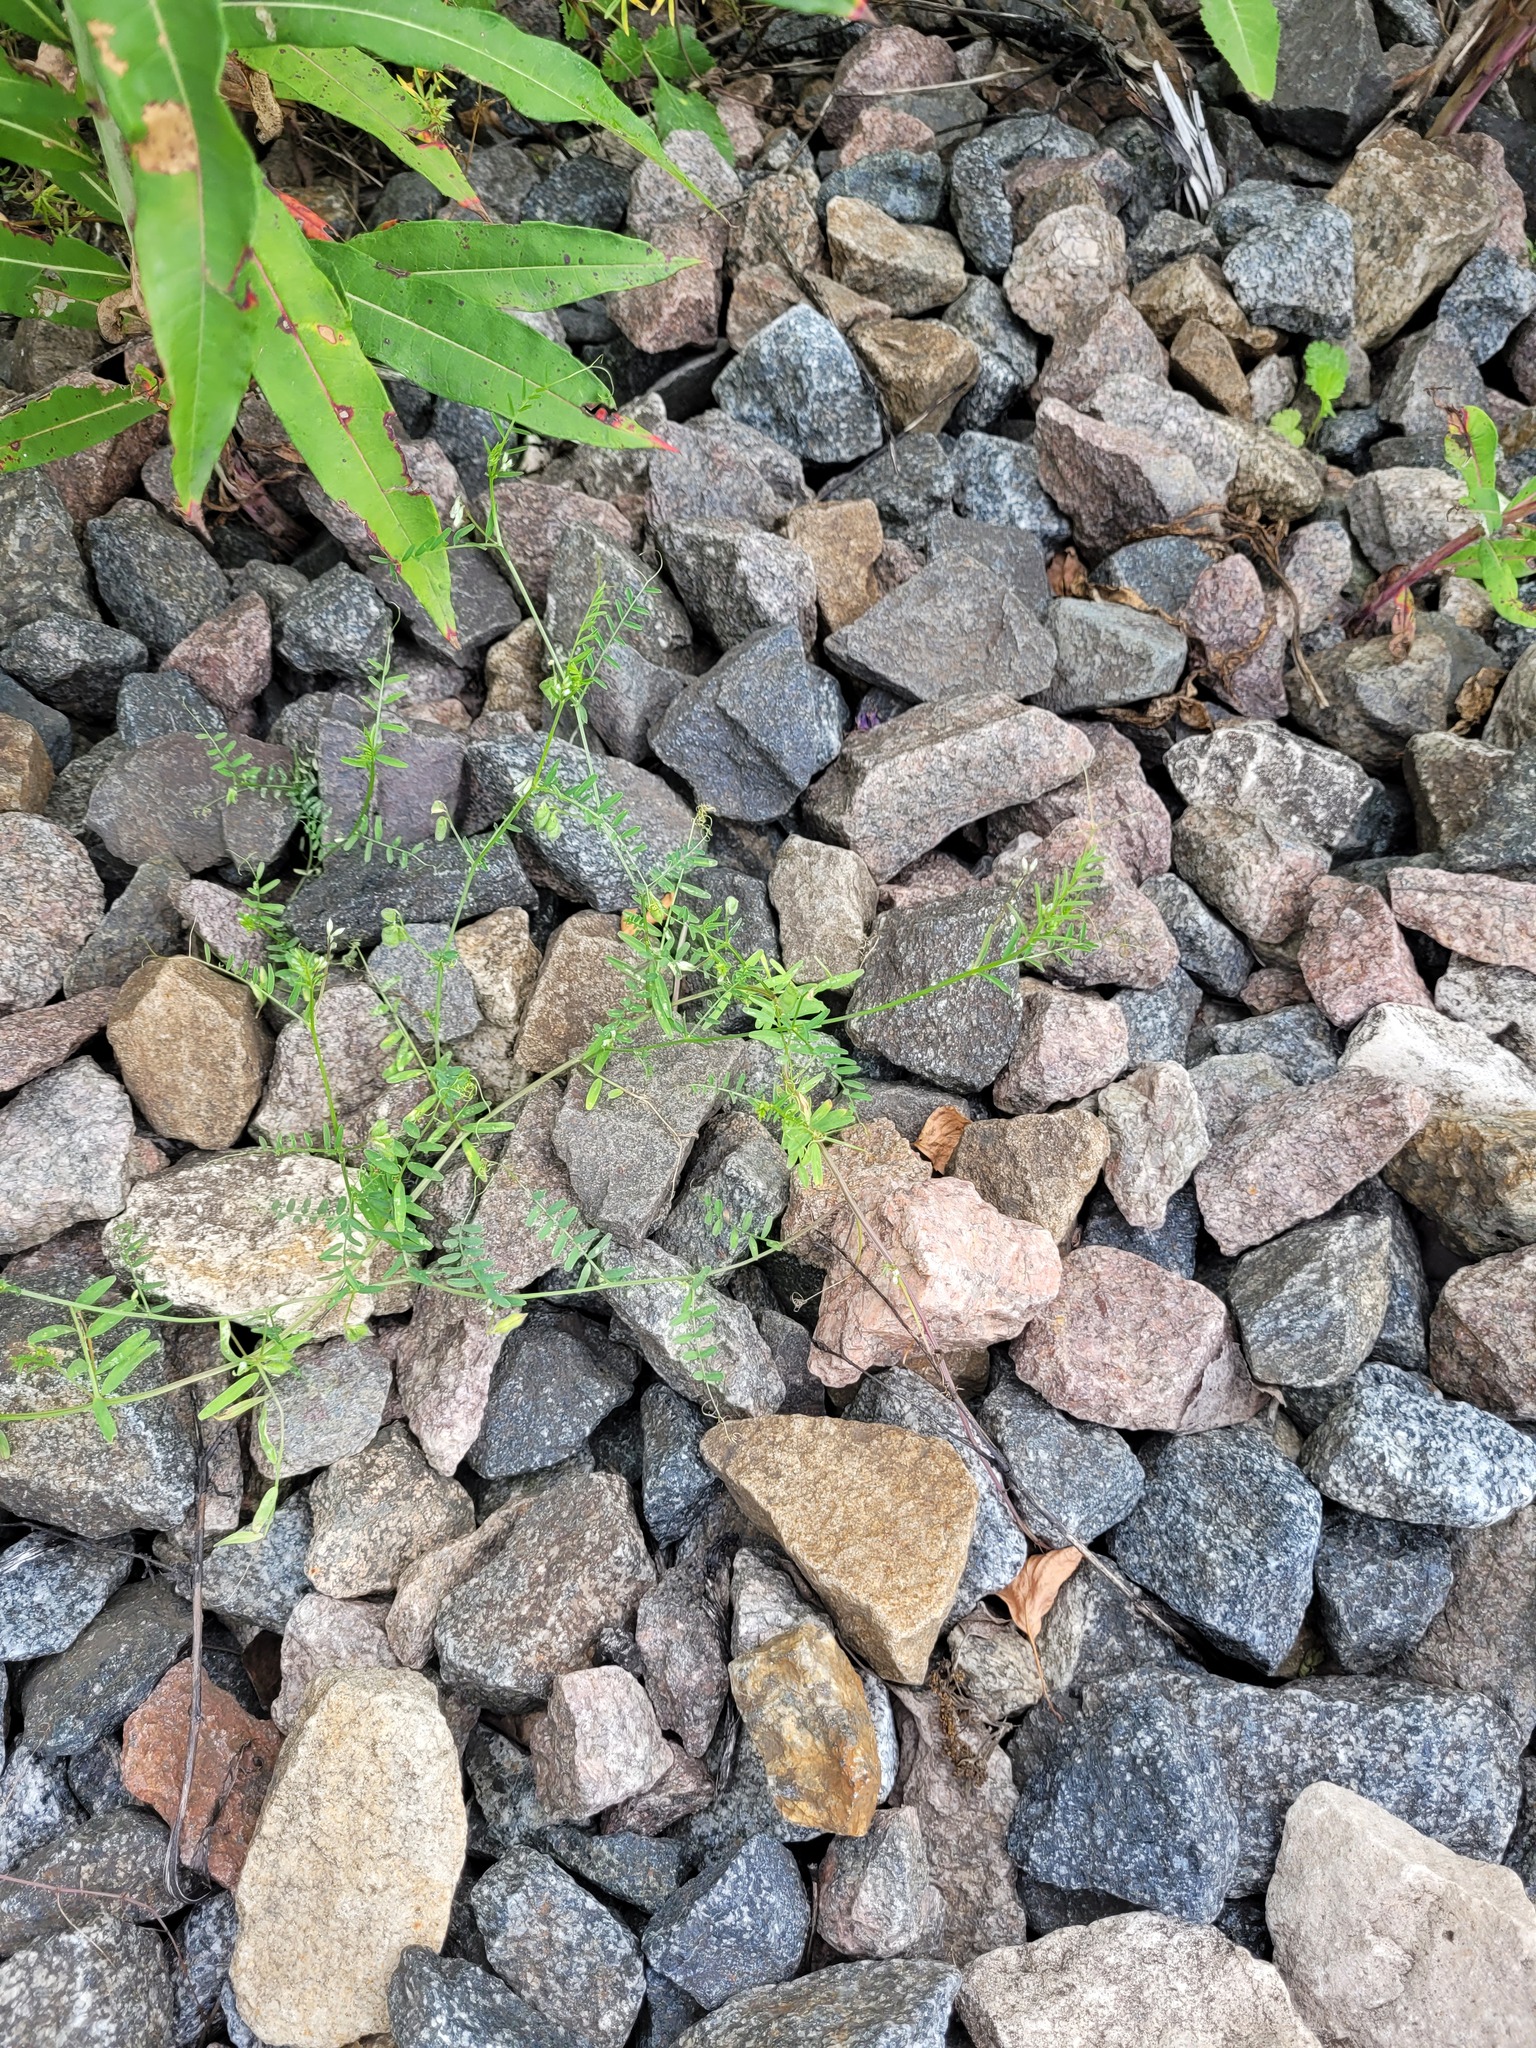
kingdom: Plantae
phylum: Tracheophyta
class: Magnoliopsida
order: Fabales
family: Fabaceae
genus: Vicia
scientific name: Vicia hirsuta
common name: Tiny vetch
